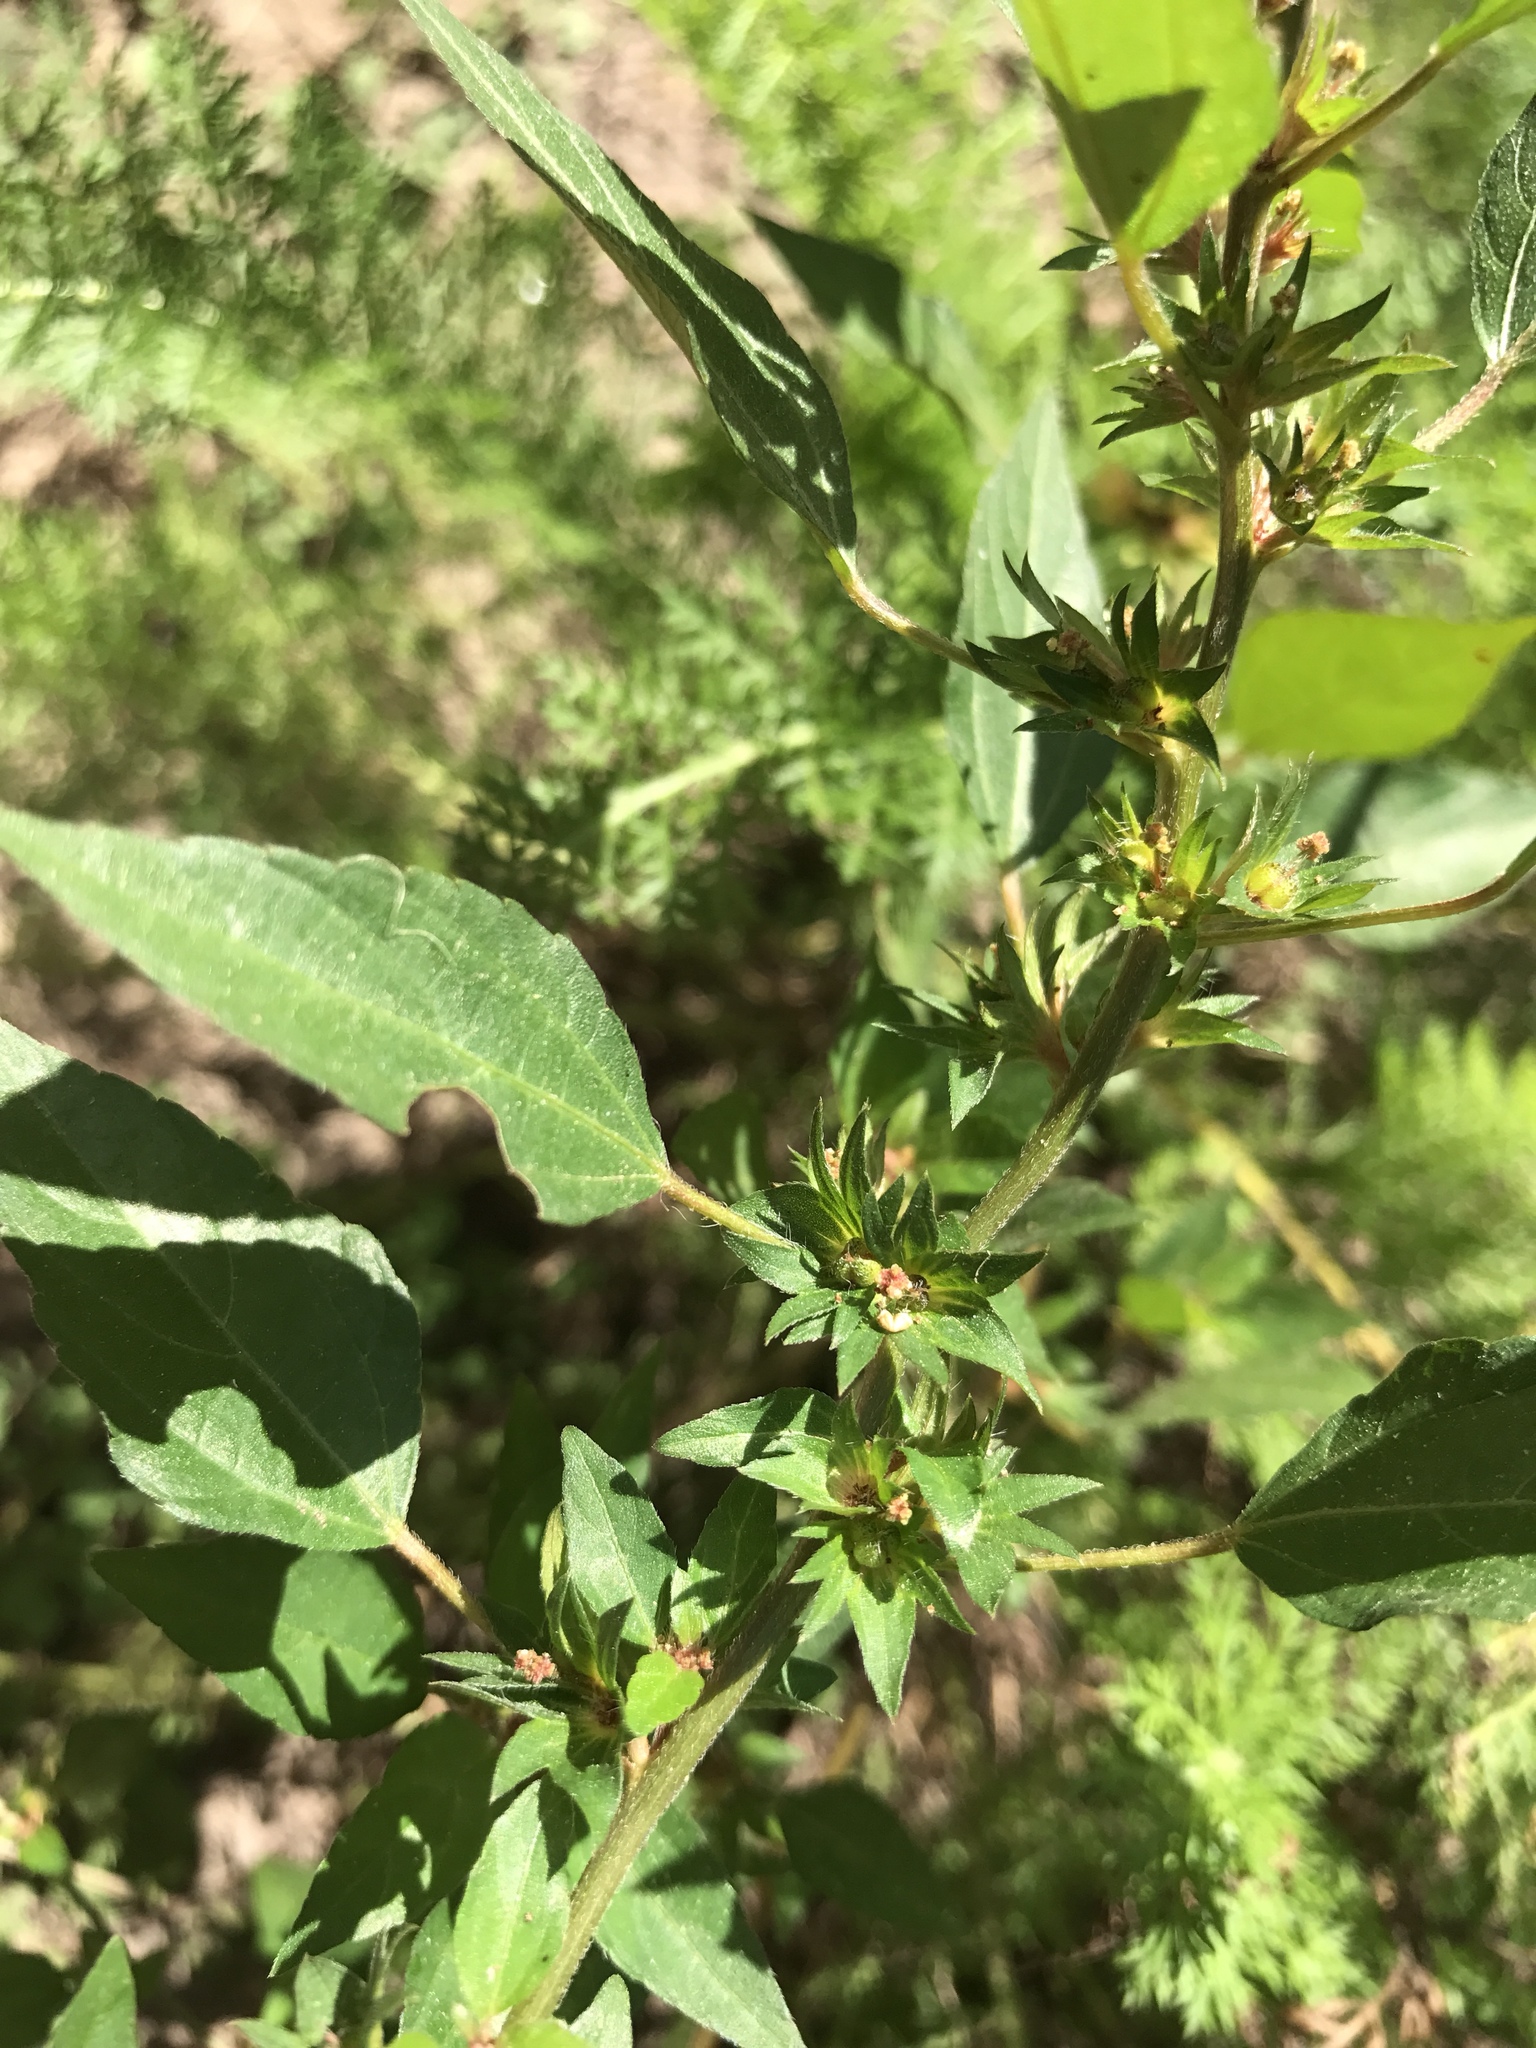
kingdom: Plantae
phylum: Tracheophyta
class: Magnoliopsida
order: Malpighiales
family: Euphorbiaceae
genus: Acalypha
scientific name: Acalypha rhomboidea
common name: Rhombic copperleaf
